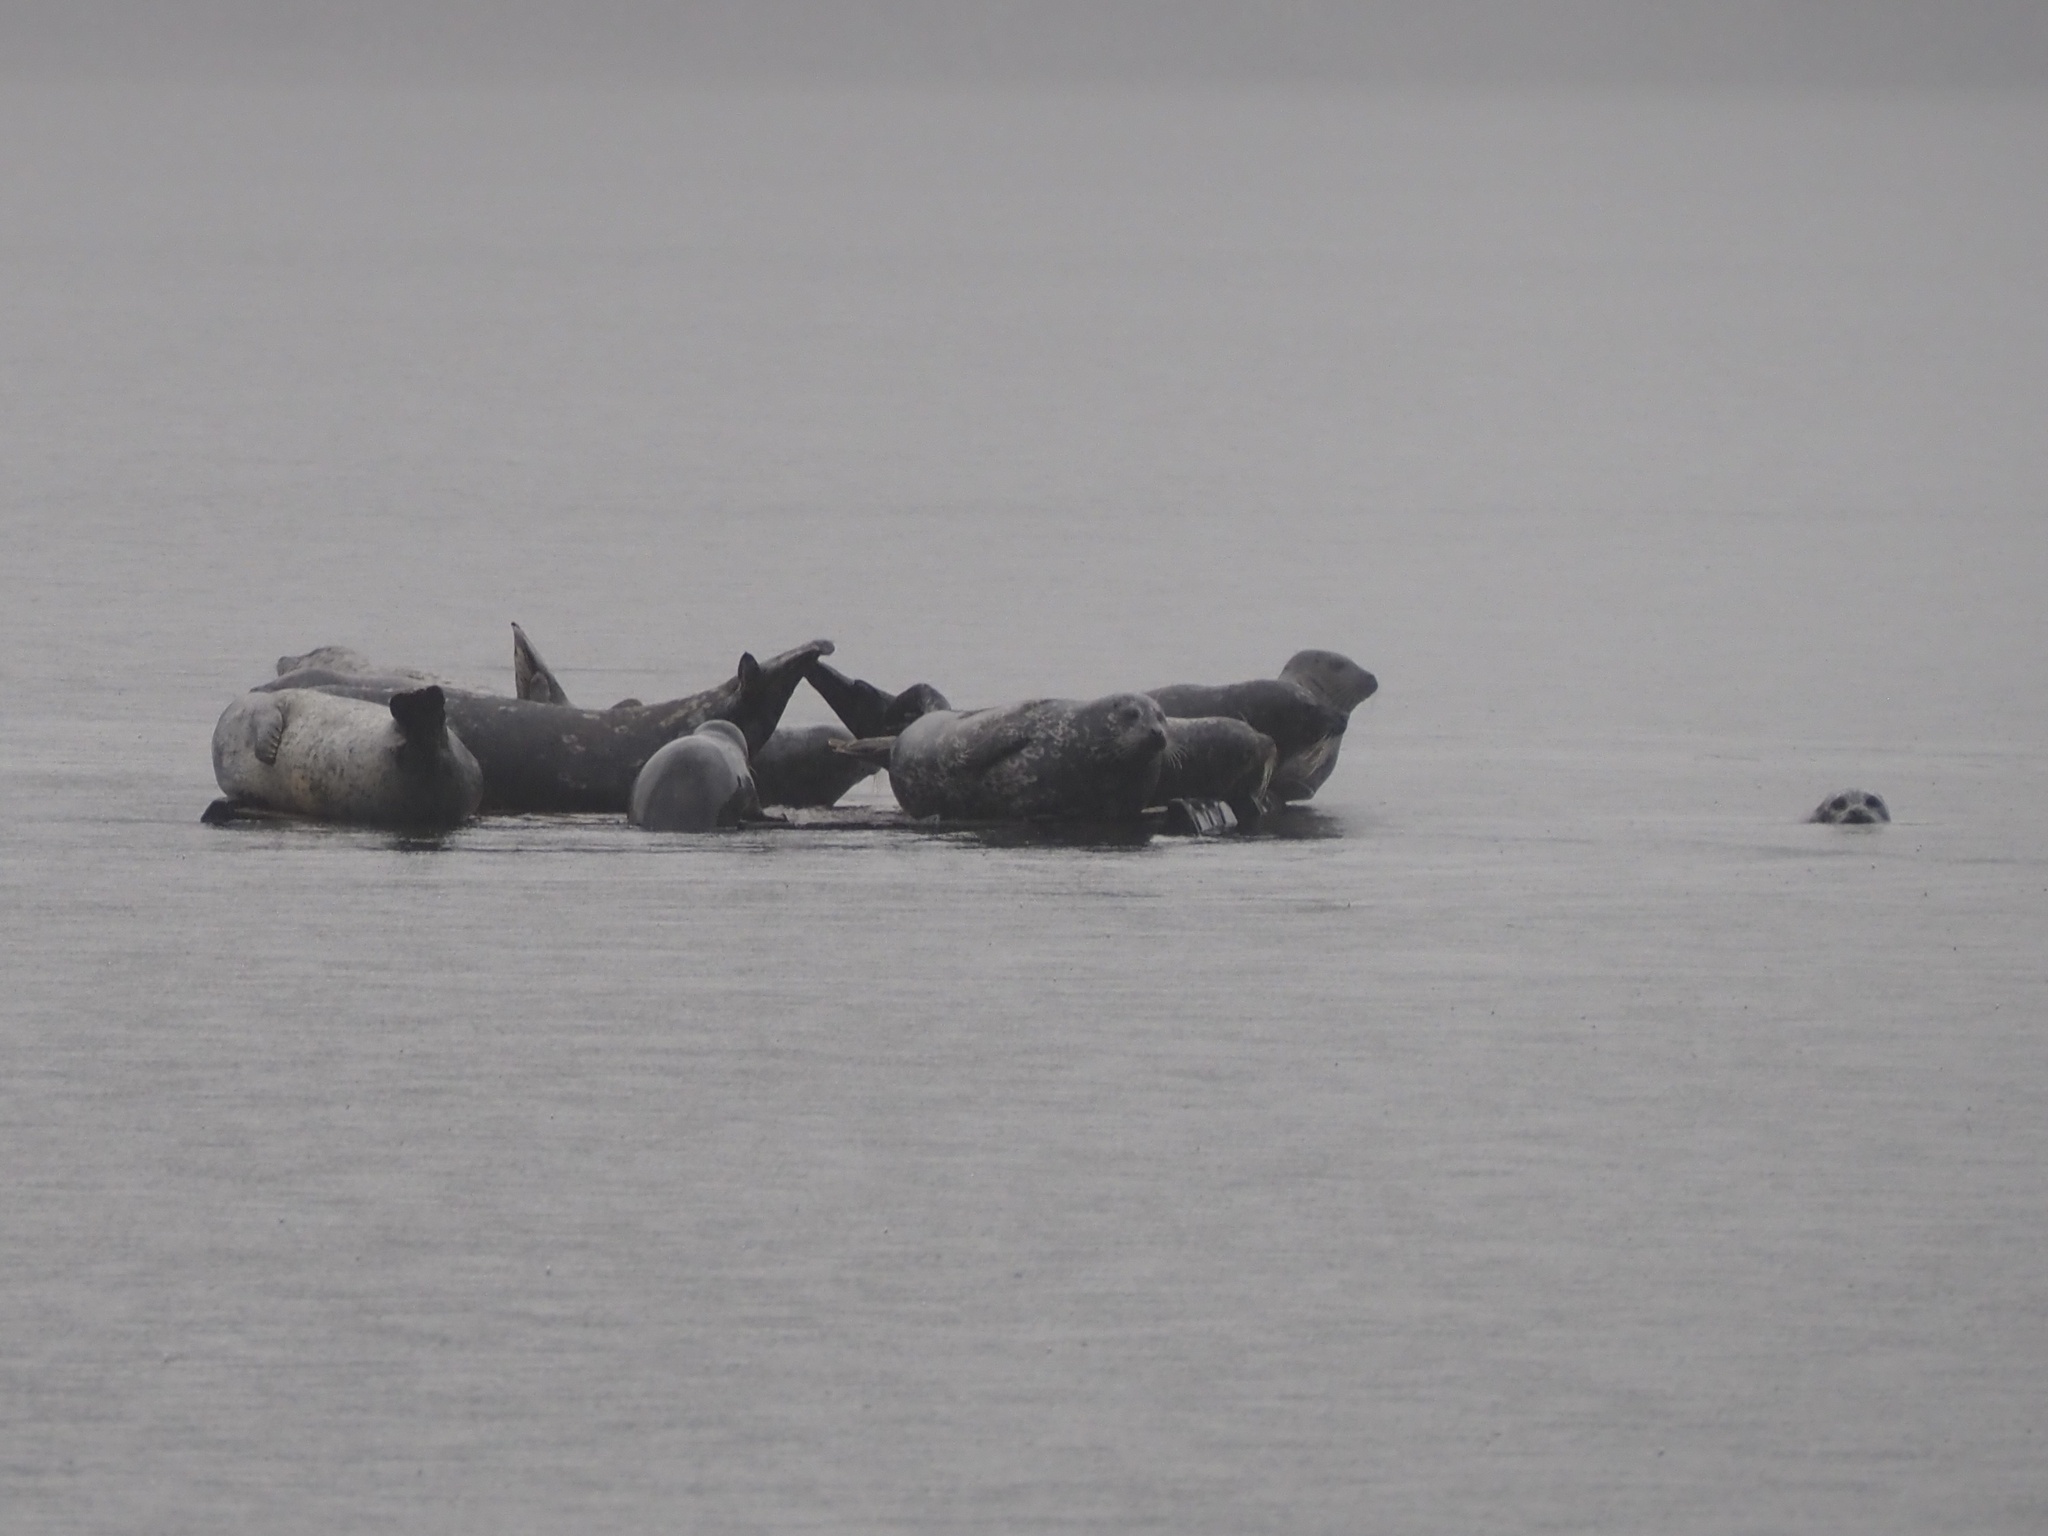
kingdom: Animalia
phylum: Chordata
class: Mammalia
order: Carnivora
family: Phocidae
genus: Phoca
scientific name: Phoca vitulina
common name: Harbor seal
